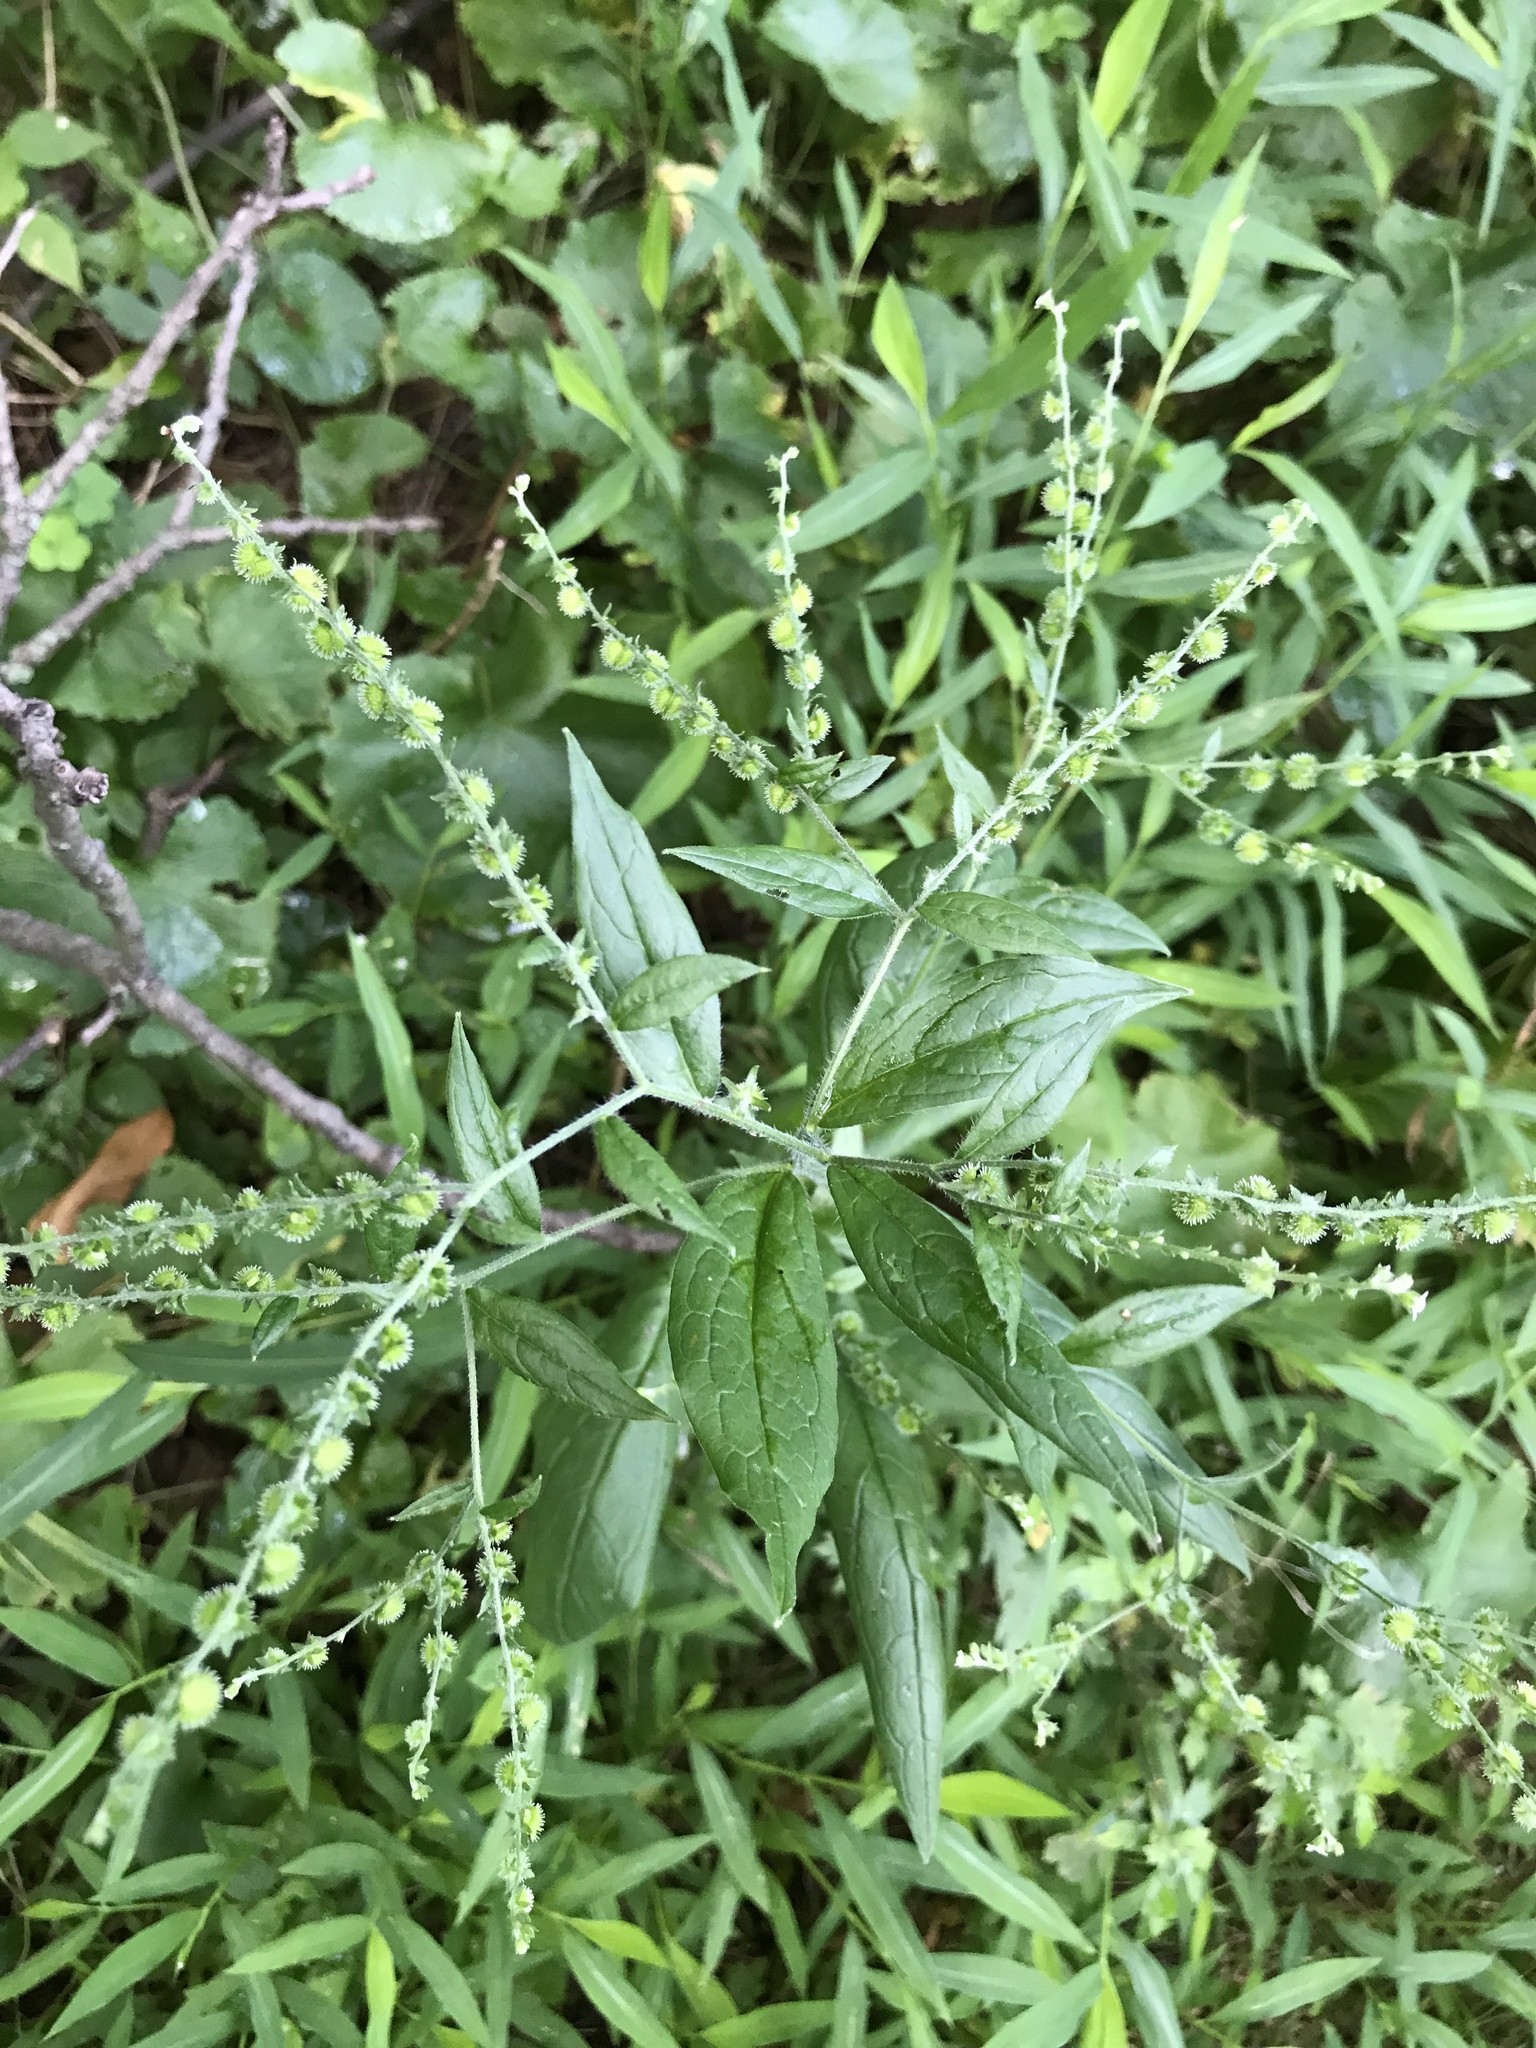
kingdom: Plantae
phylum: Tracheophyta
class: Magnoliopsida
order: Boraginales
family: Boraginaceae
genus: Hackelia
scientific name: Hackelia virginiana
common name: Beggar's-lice
